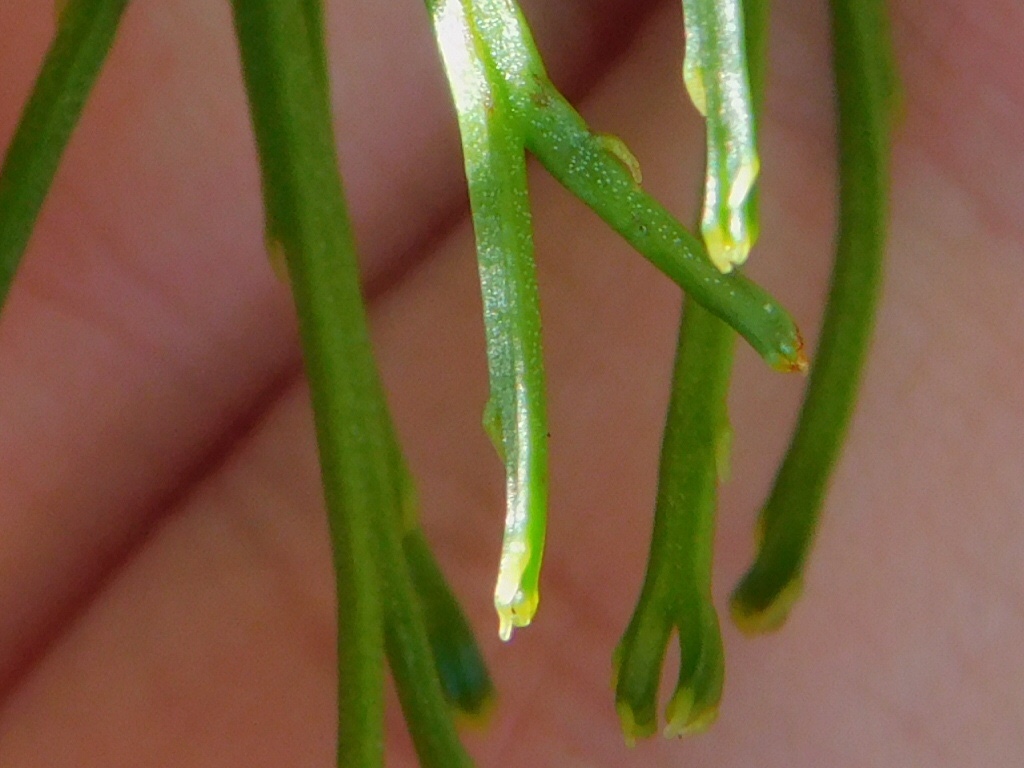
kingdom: Plantae
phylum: Tracheophyta
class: Polypodiopsida
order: Psilotales
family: Psilotaceae
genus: Psilotum
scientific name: Psilotum nudum
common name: Skeleton fork fern
